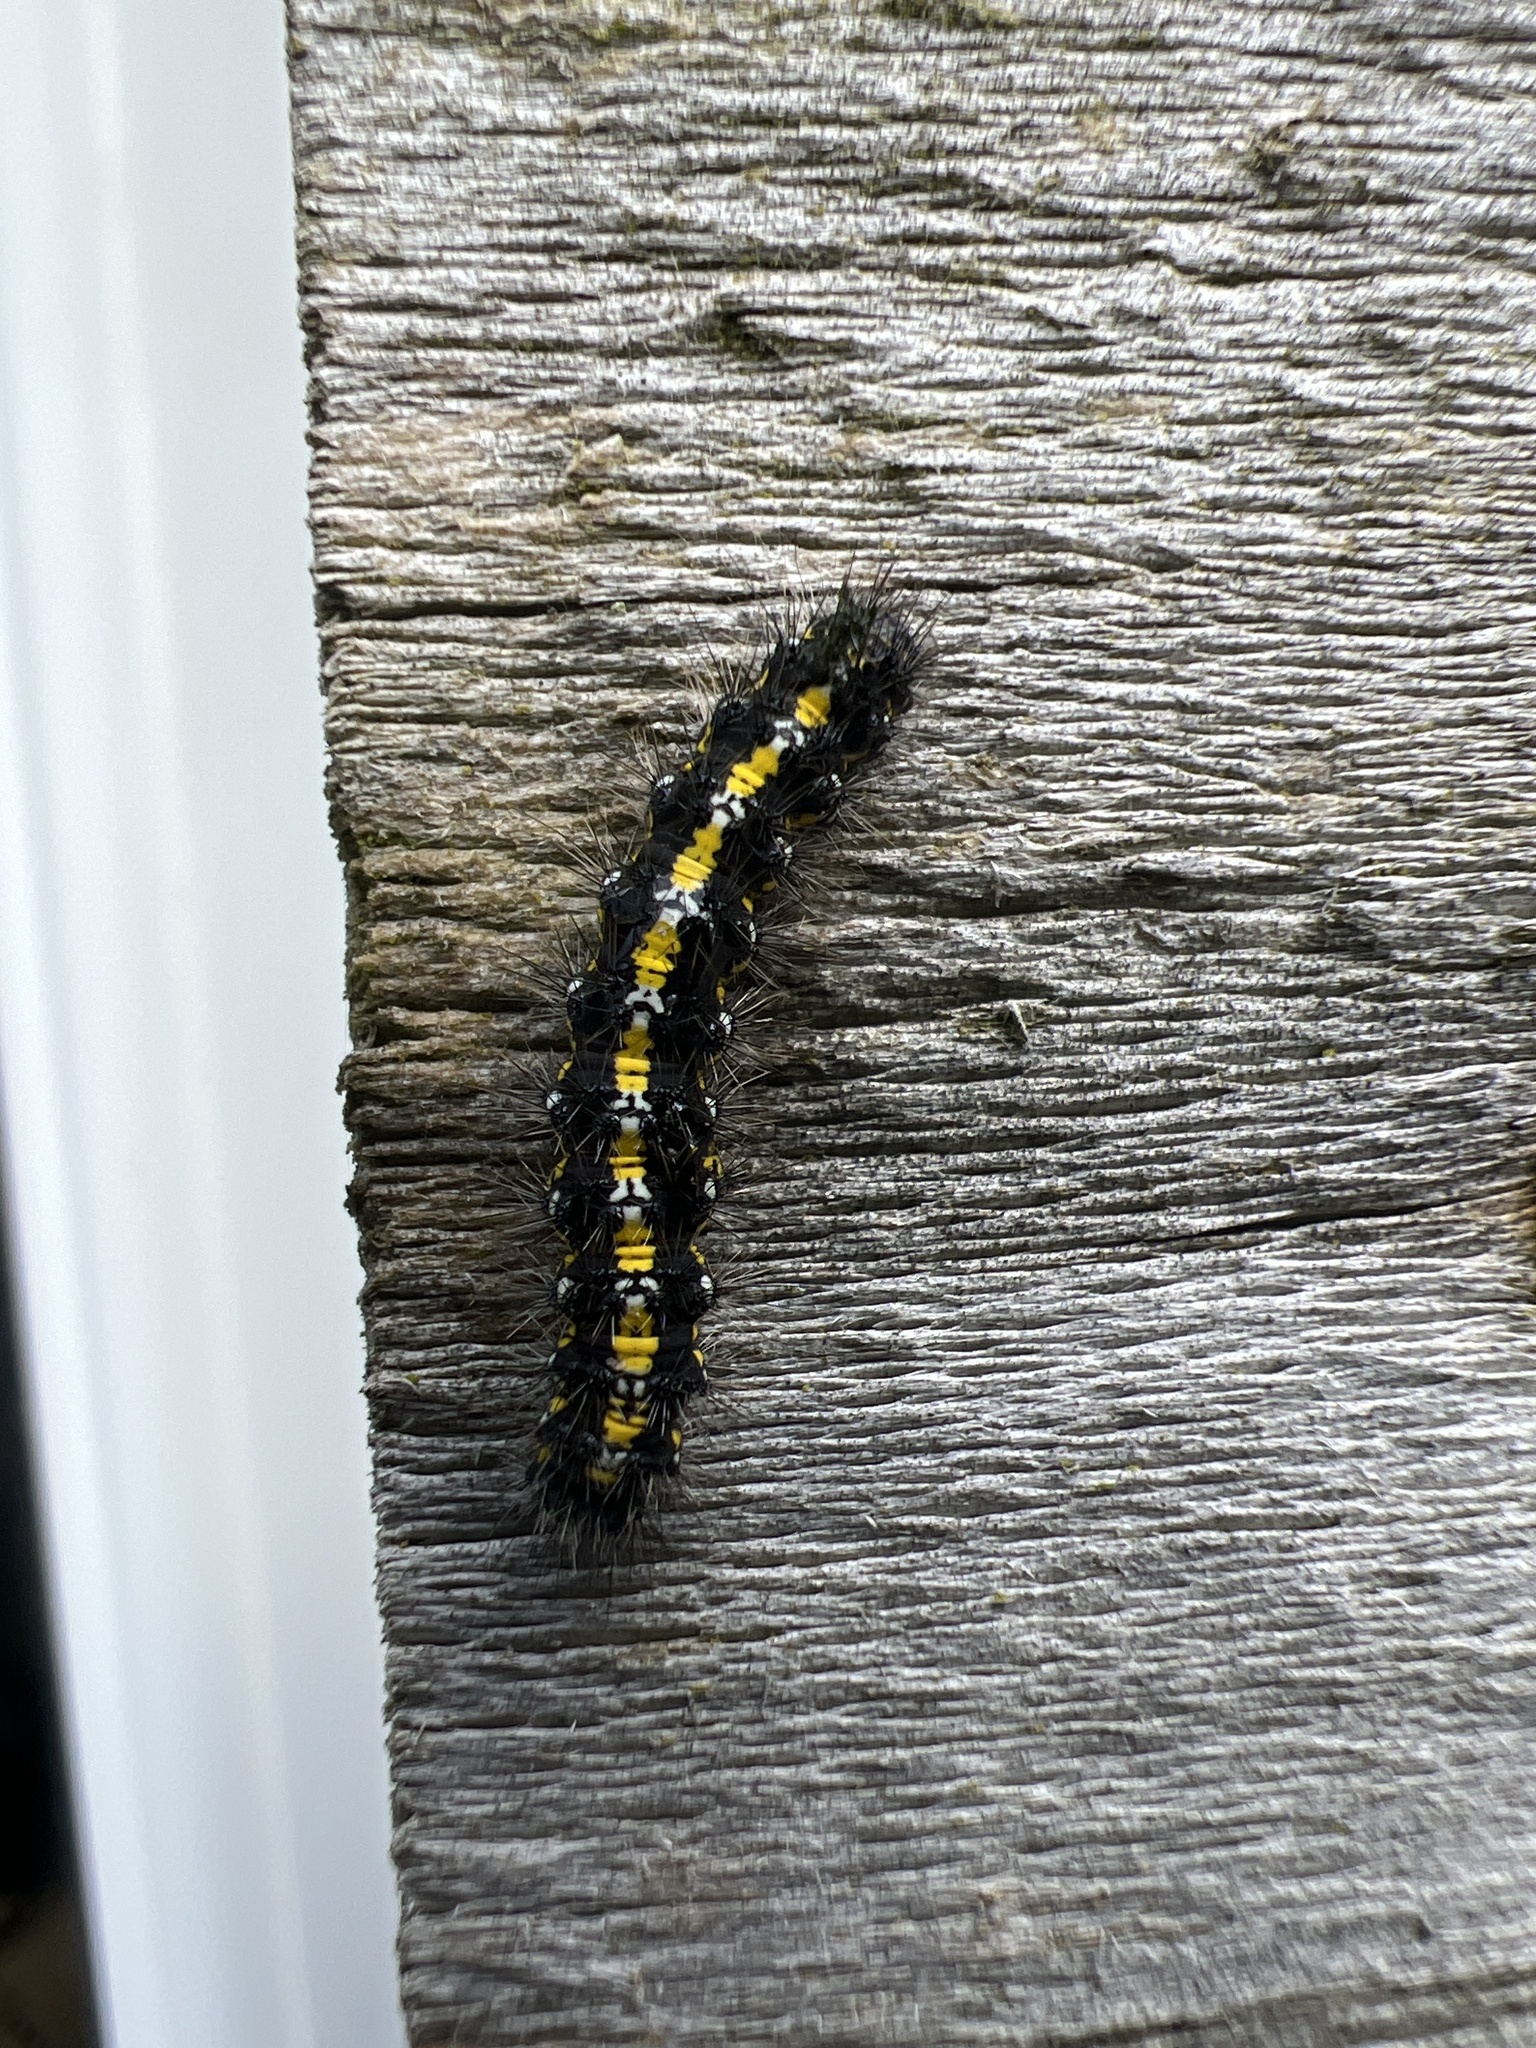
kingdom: Animalia
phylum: Arthropoda
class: Insecta
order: Lepidoptera
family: Erebidae
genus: Callimorpha
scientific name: Callimorpha dominula
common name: Scarlet tiger
